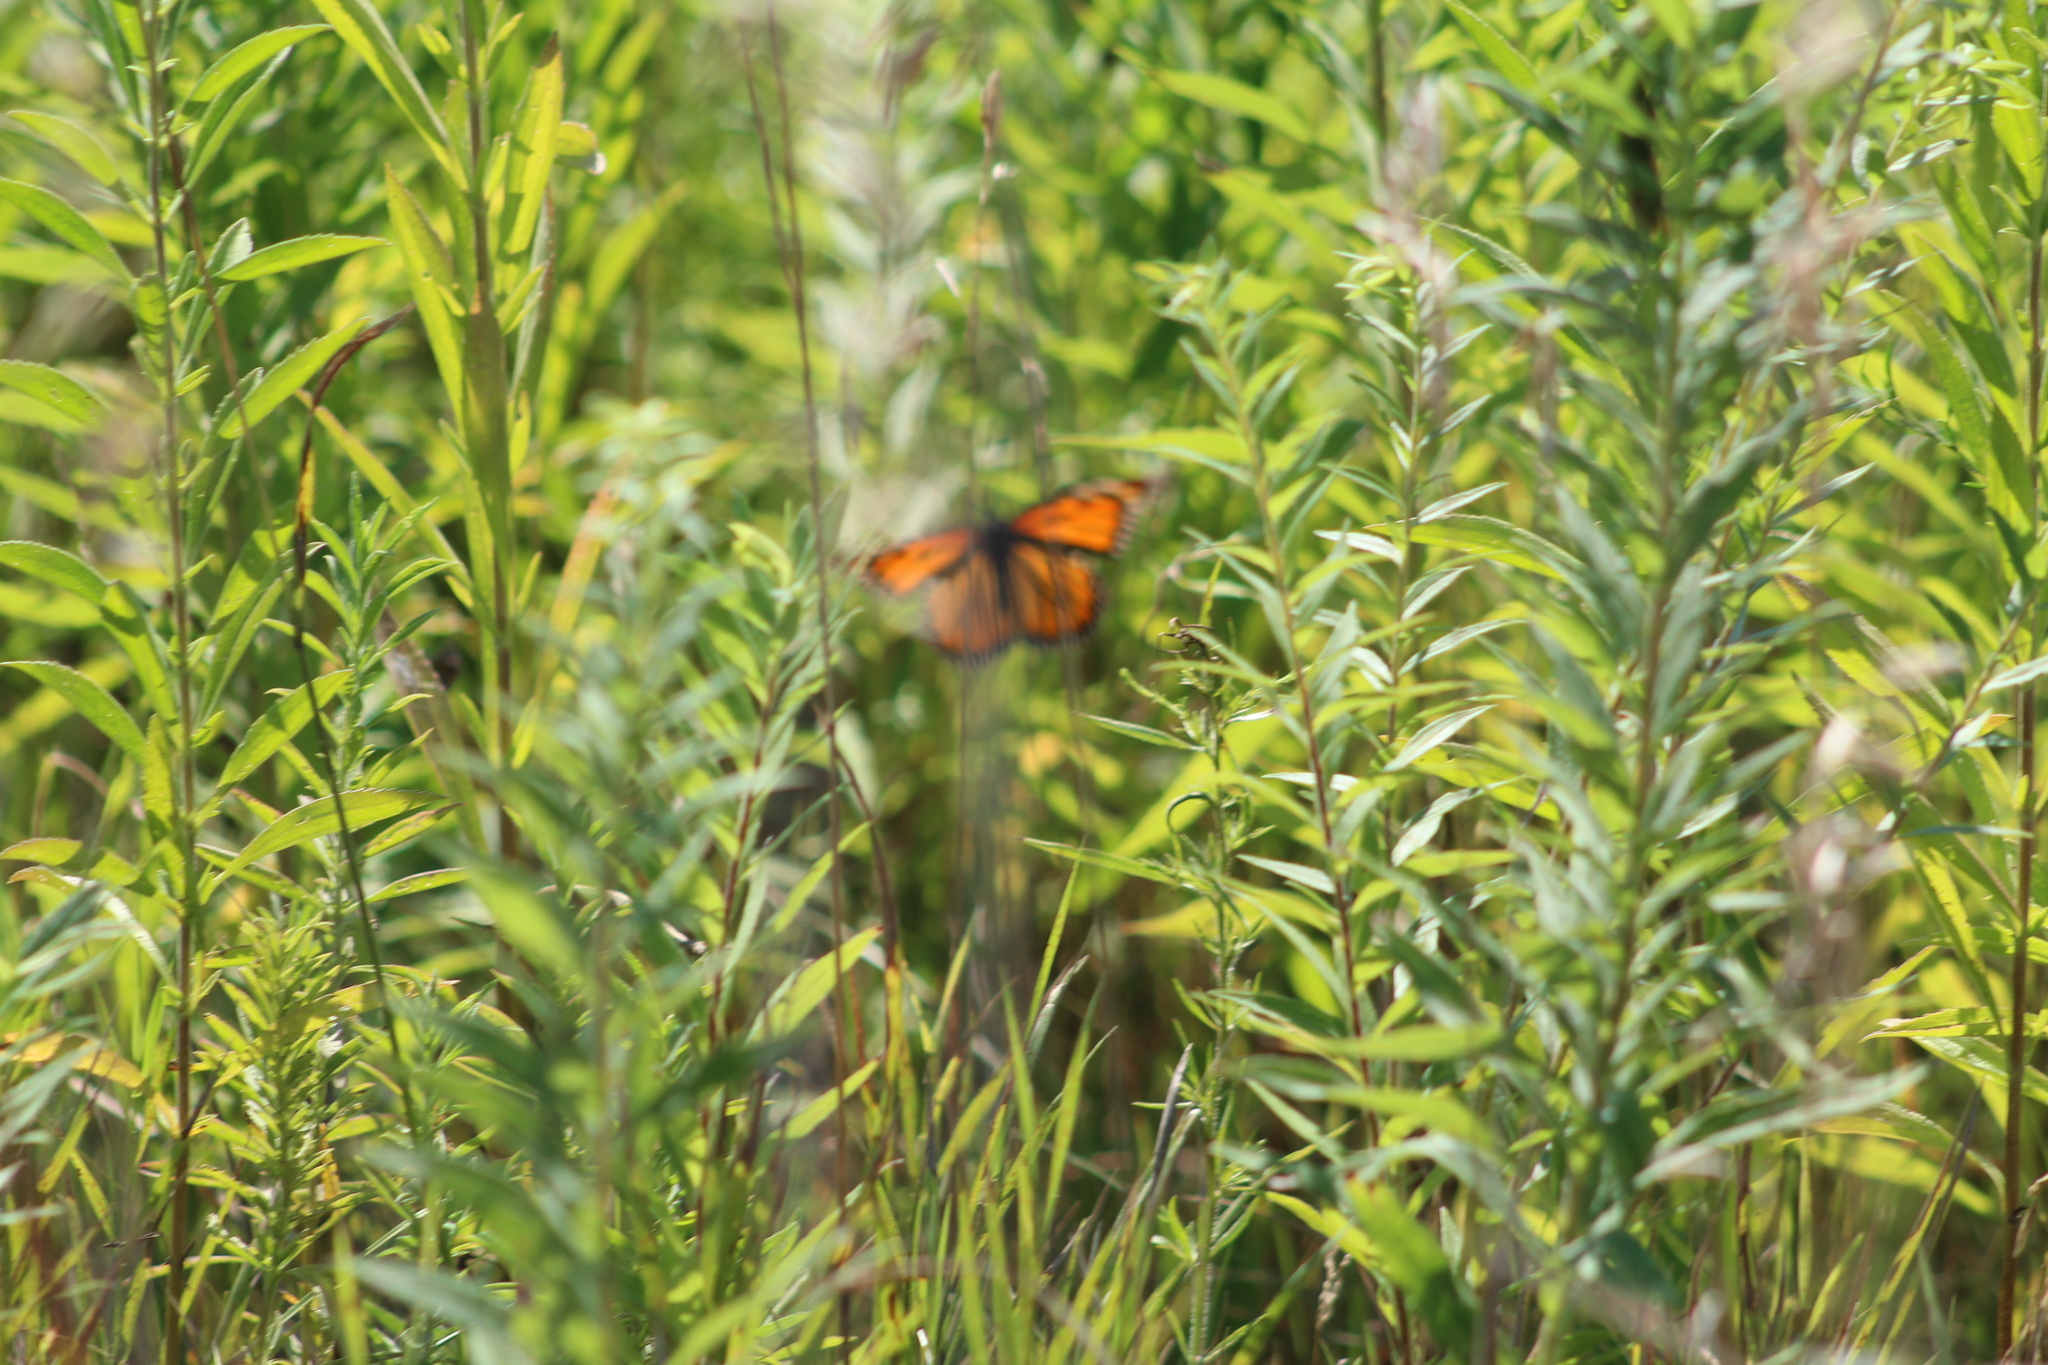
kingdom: Animalia
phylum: Arthropoda
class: Insecta
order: Lepidoptera
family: Nymphalidae
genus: Danaus
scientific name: Danaus plexippus
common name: Monarch
